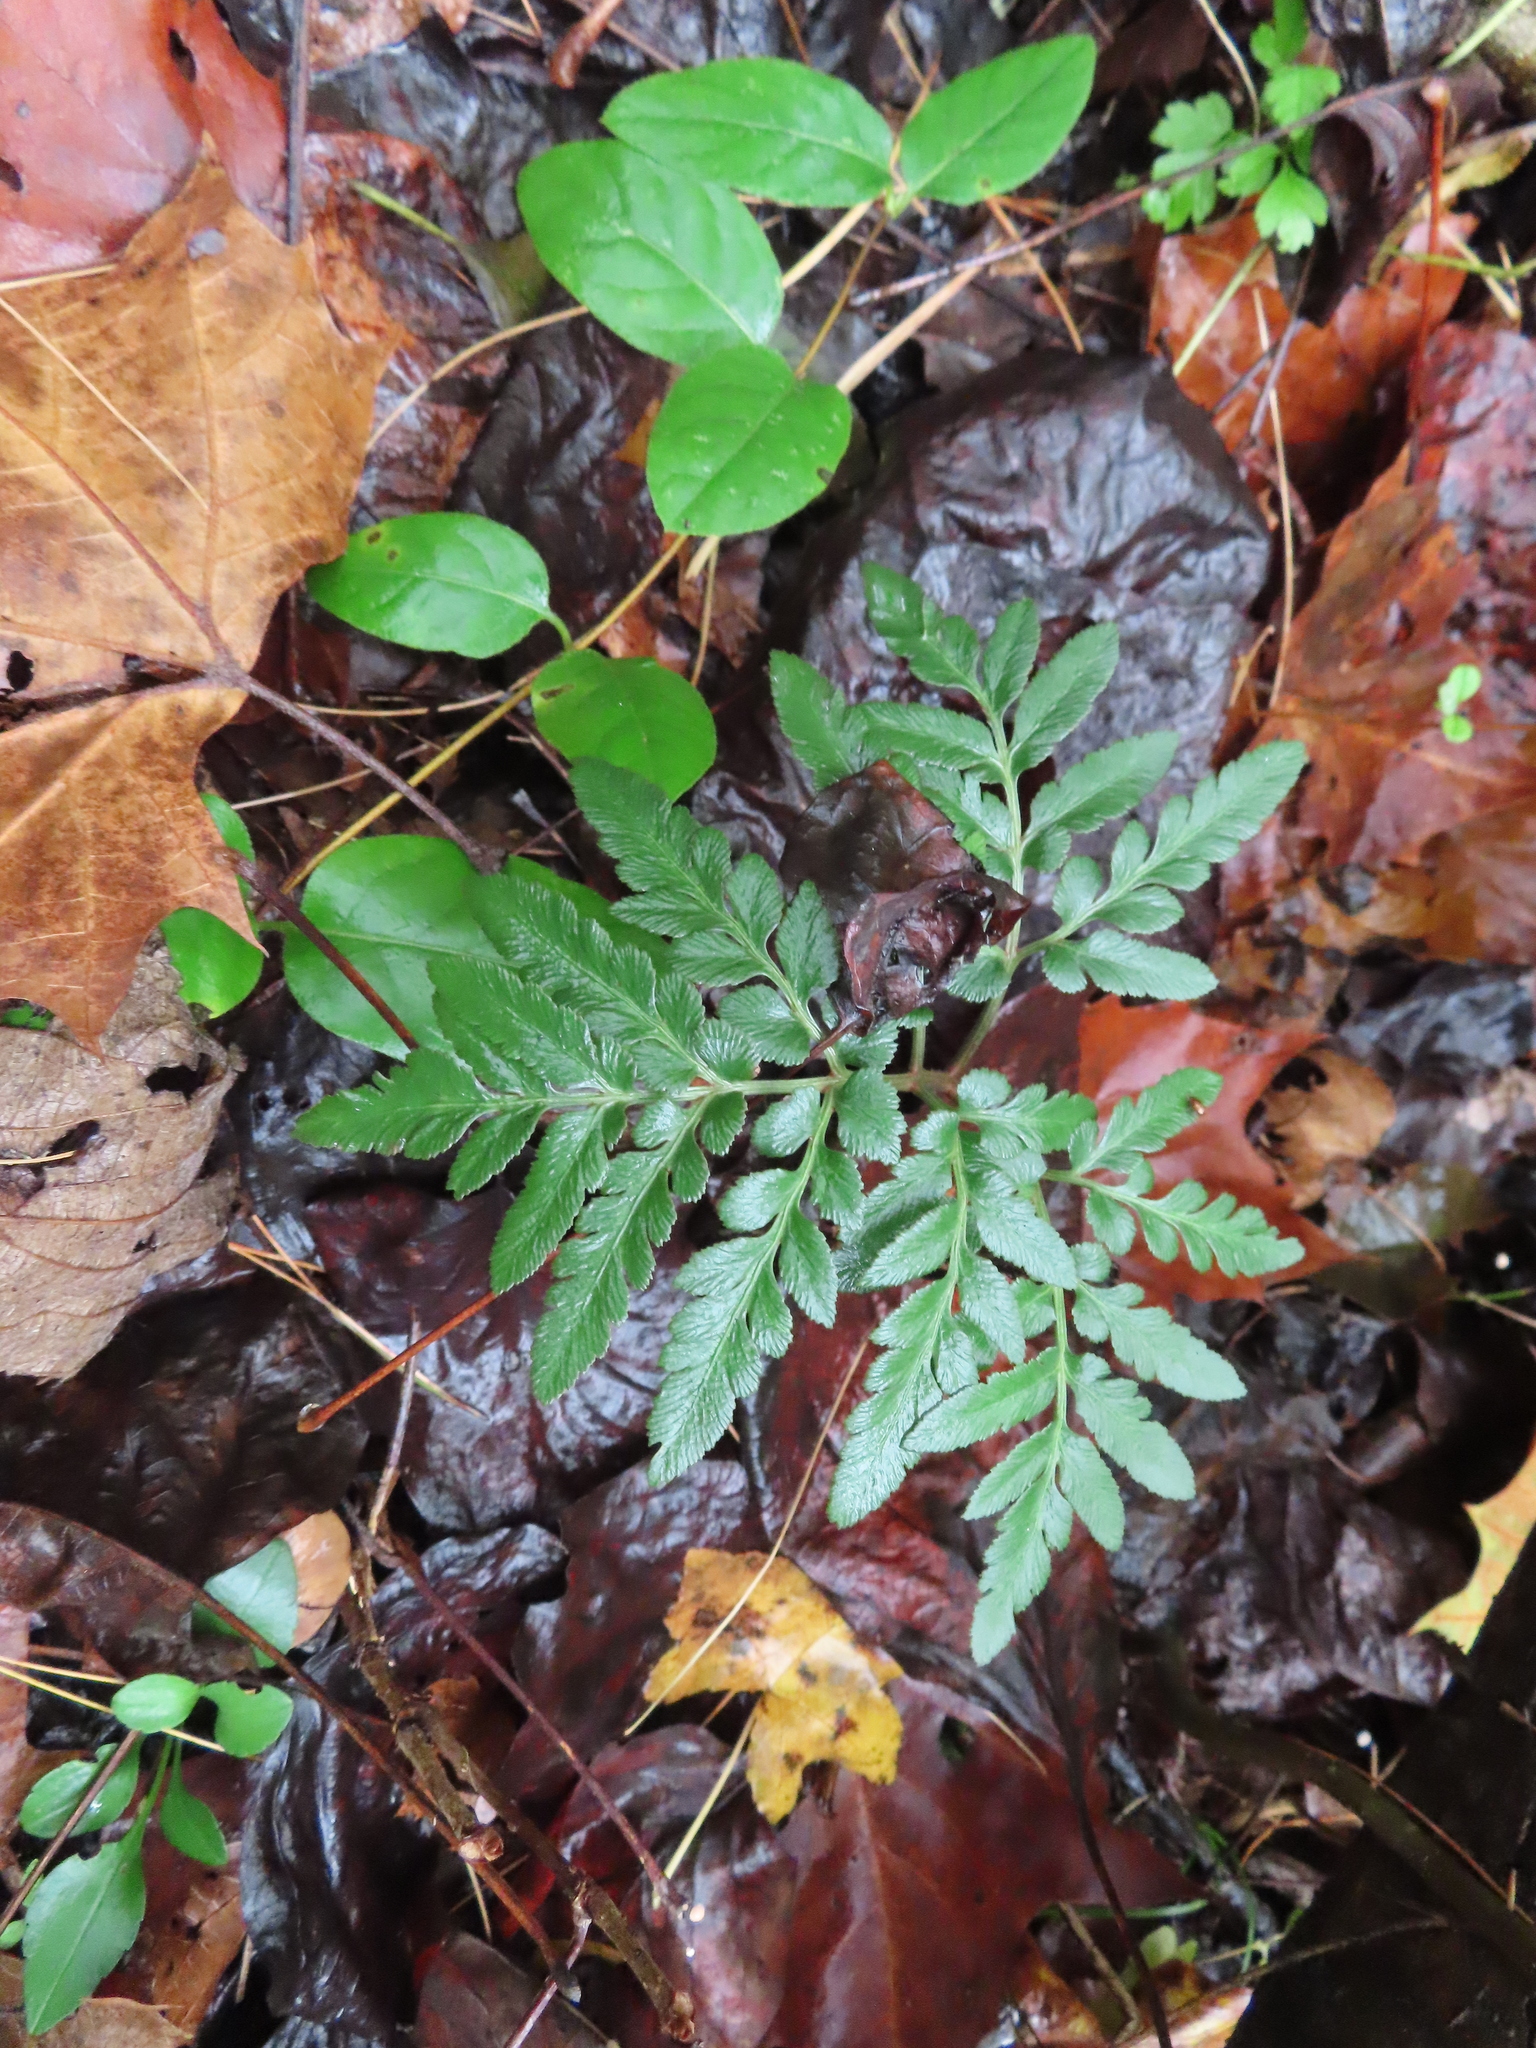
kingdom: Plantae
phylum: Tracheophyta
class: Polypodiopsida
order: Ophioglossales
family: Ophioglossaceae
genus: Sceptridium
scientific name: Sceptridium dissectum
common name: Cut-leaved grapefern
